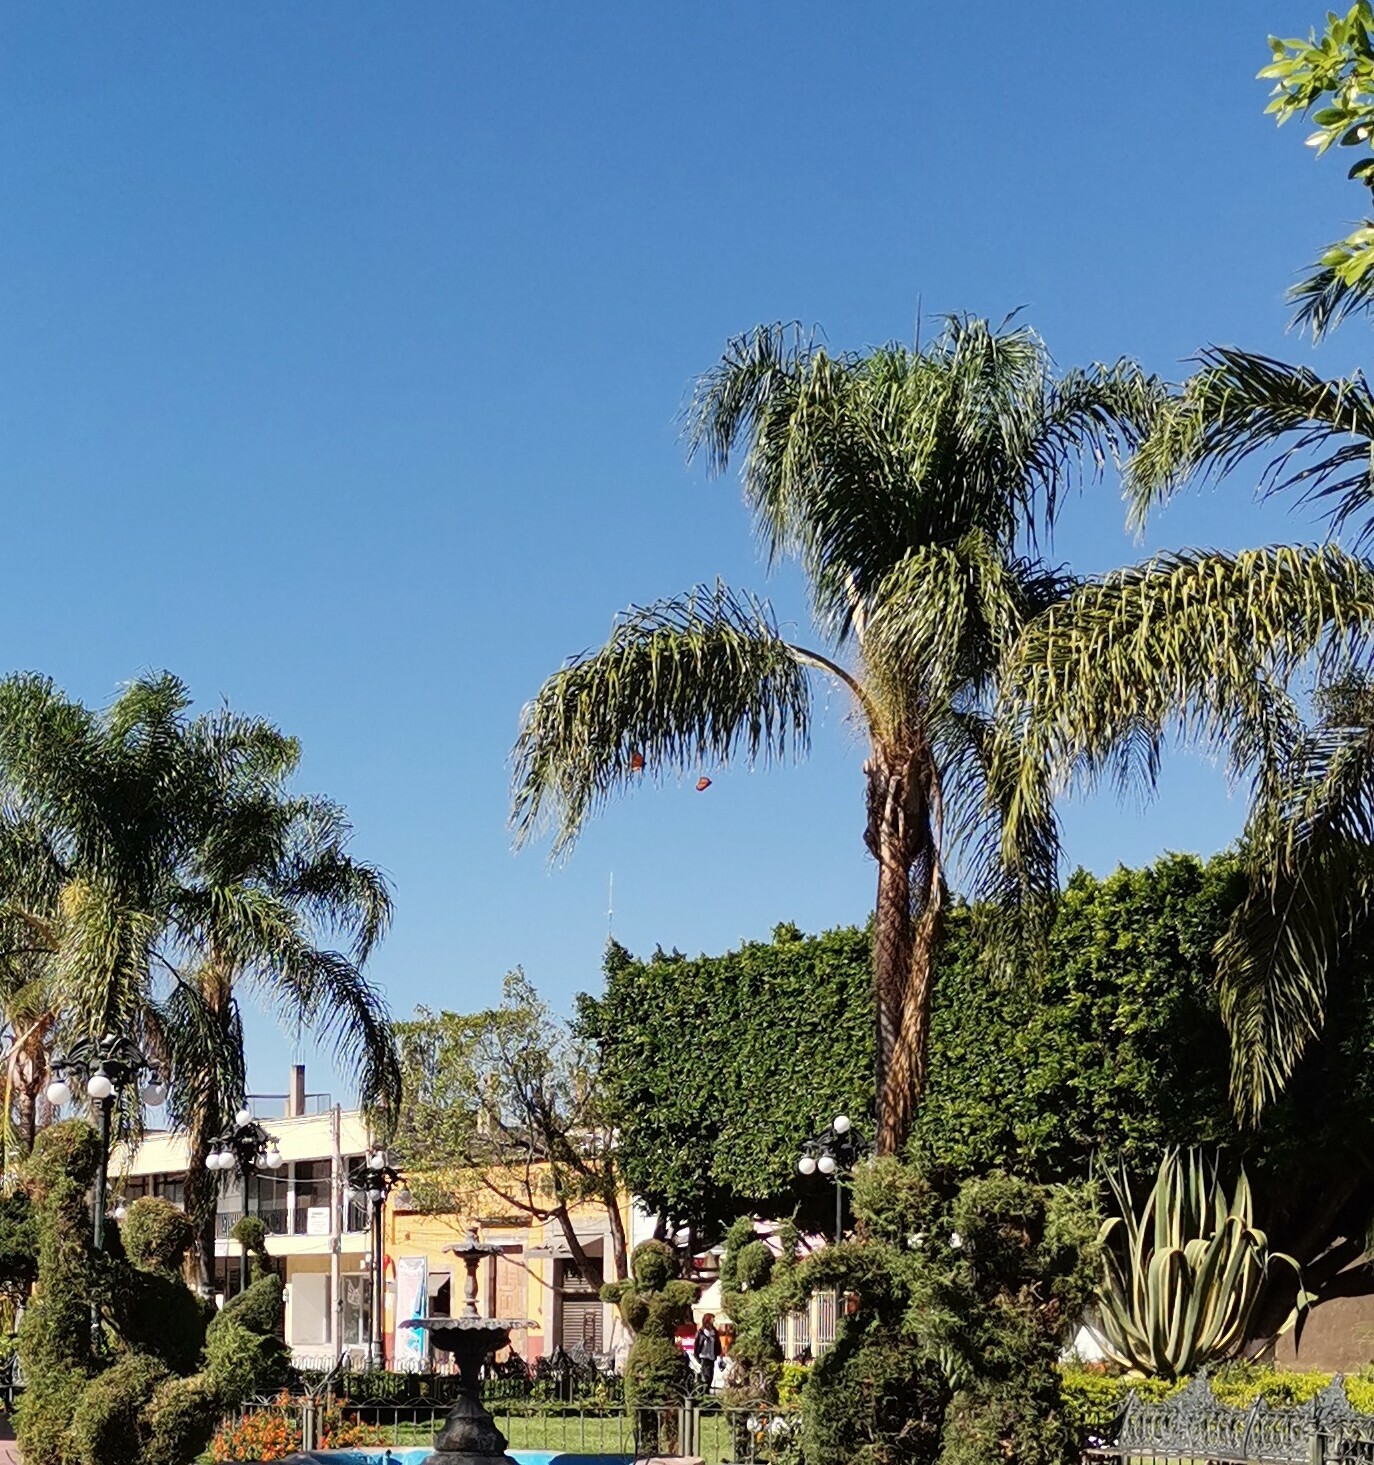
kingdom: Animalia
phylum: Arthropoda
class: Insecta
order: Lepidoptera
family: Nymphalidae
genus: Danaus
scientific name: Danaus plexippus
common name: Monarch
